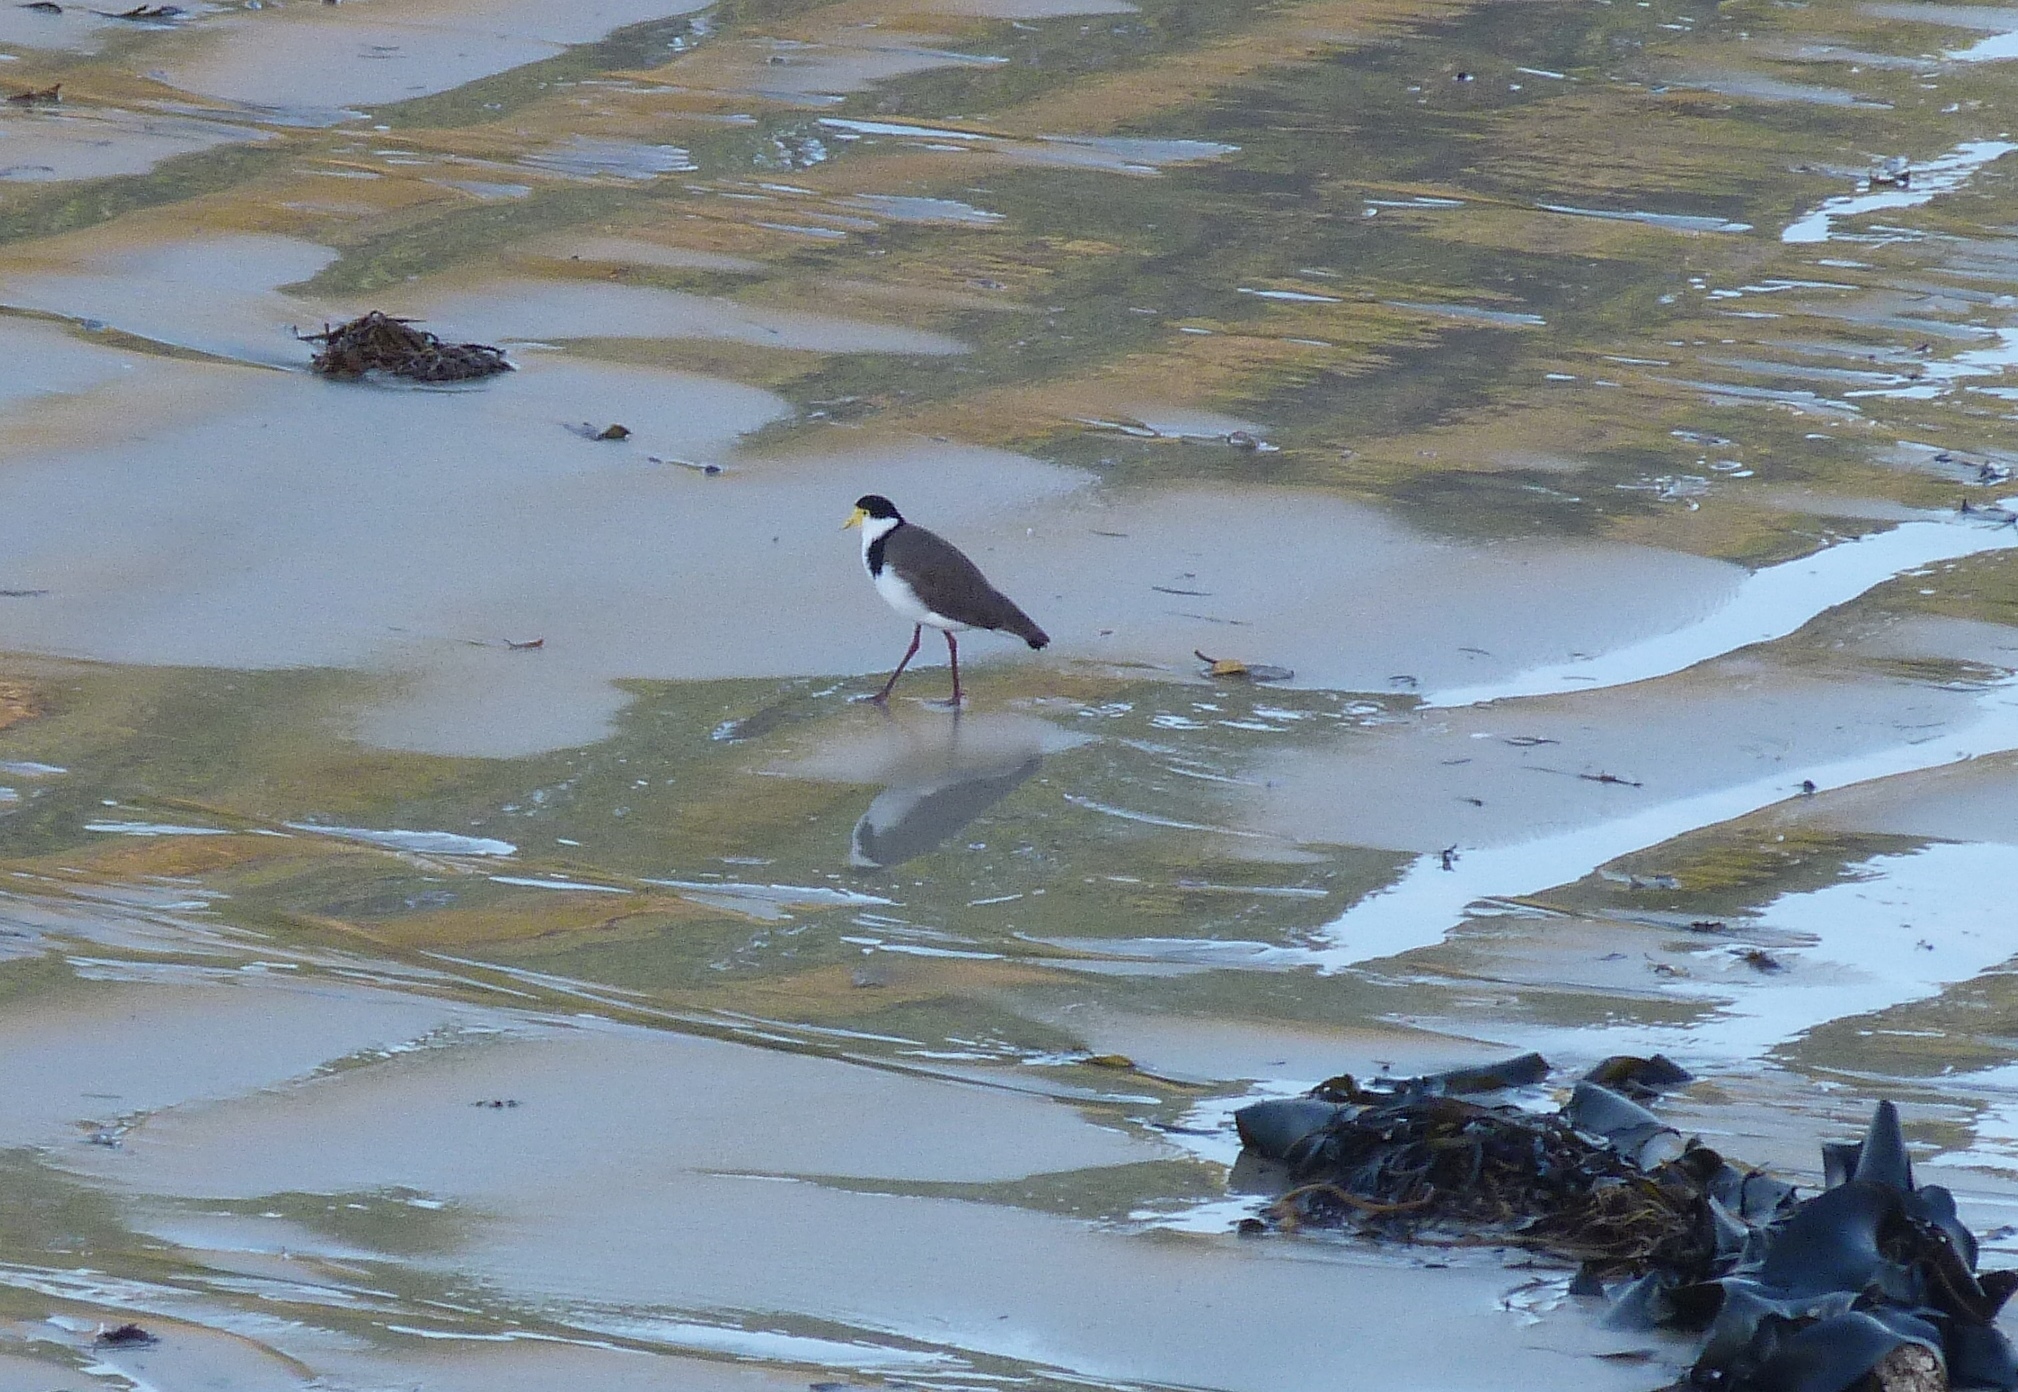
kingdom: Animalia
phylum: Chordata
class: Aves
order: Charadriiformes
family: Charadriidae
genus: Vanellus
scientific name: Vanellus miles
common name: Masked lapwing
